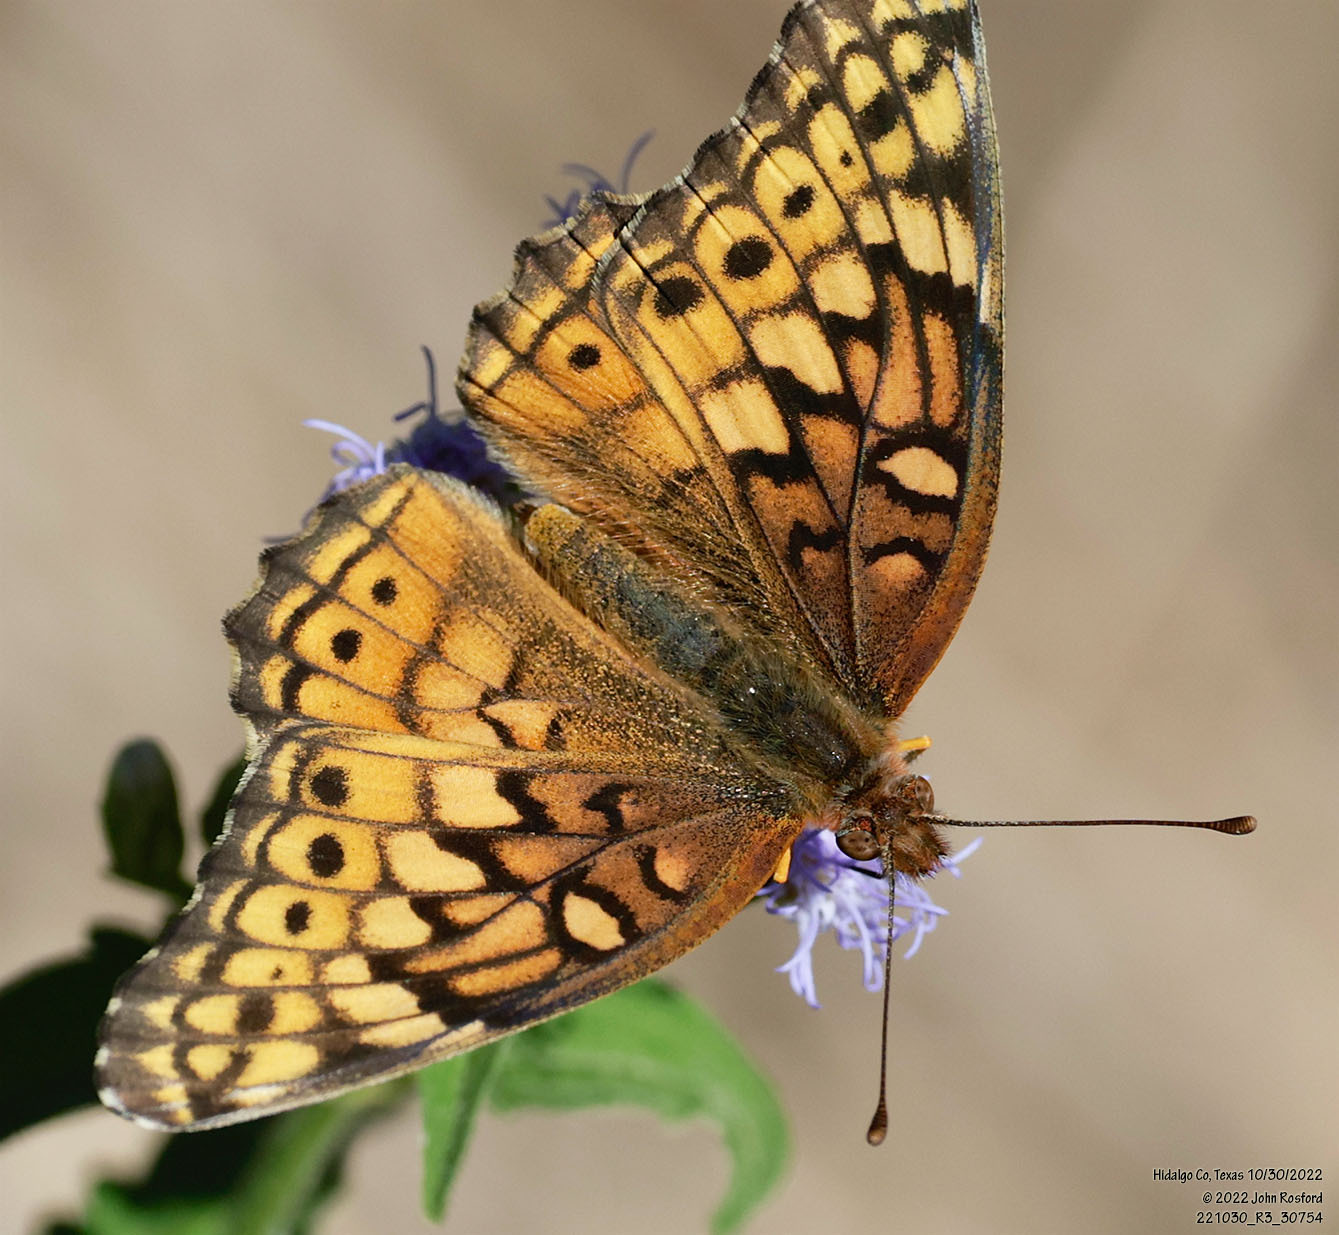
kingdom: Animalia
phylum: Arthropoda
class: Insecta
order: Lepidoptera
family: Nymphalidae
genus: Euptoieta
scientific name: Euptoieta claudia
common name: Variegated fritillary
